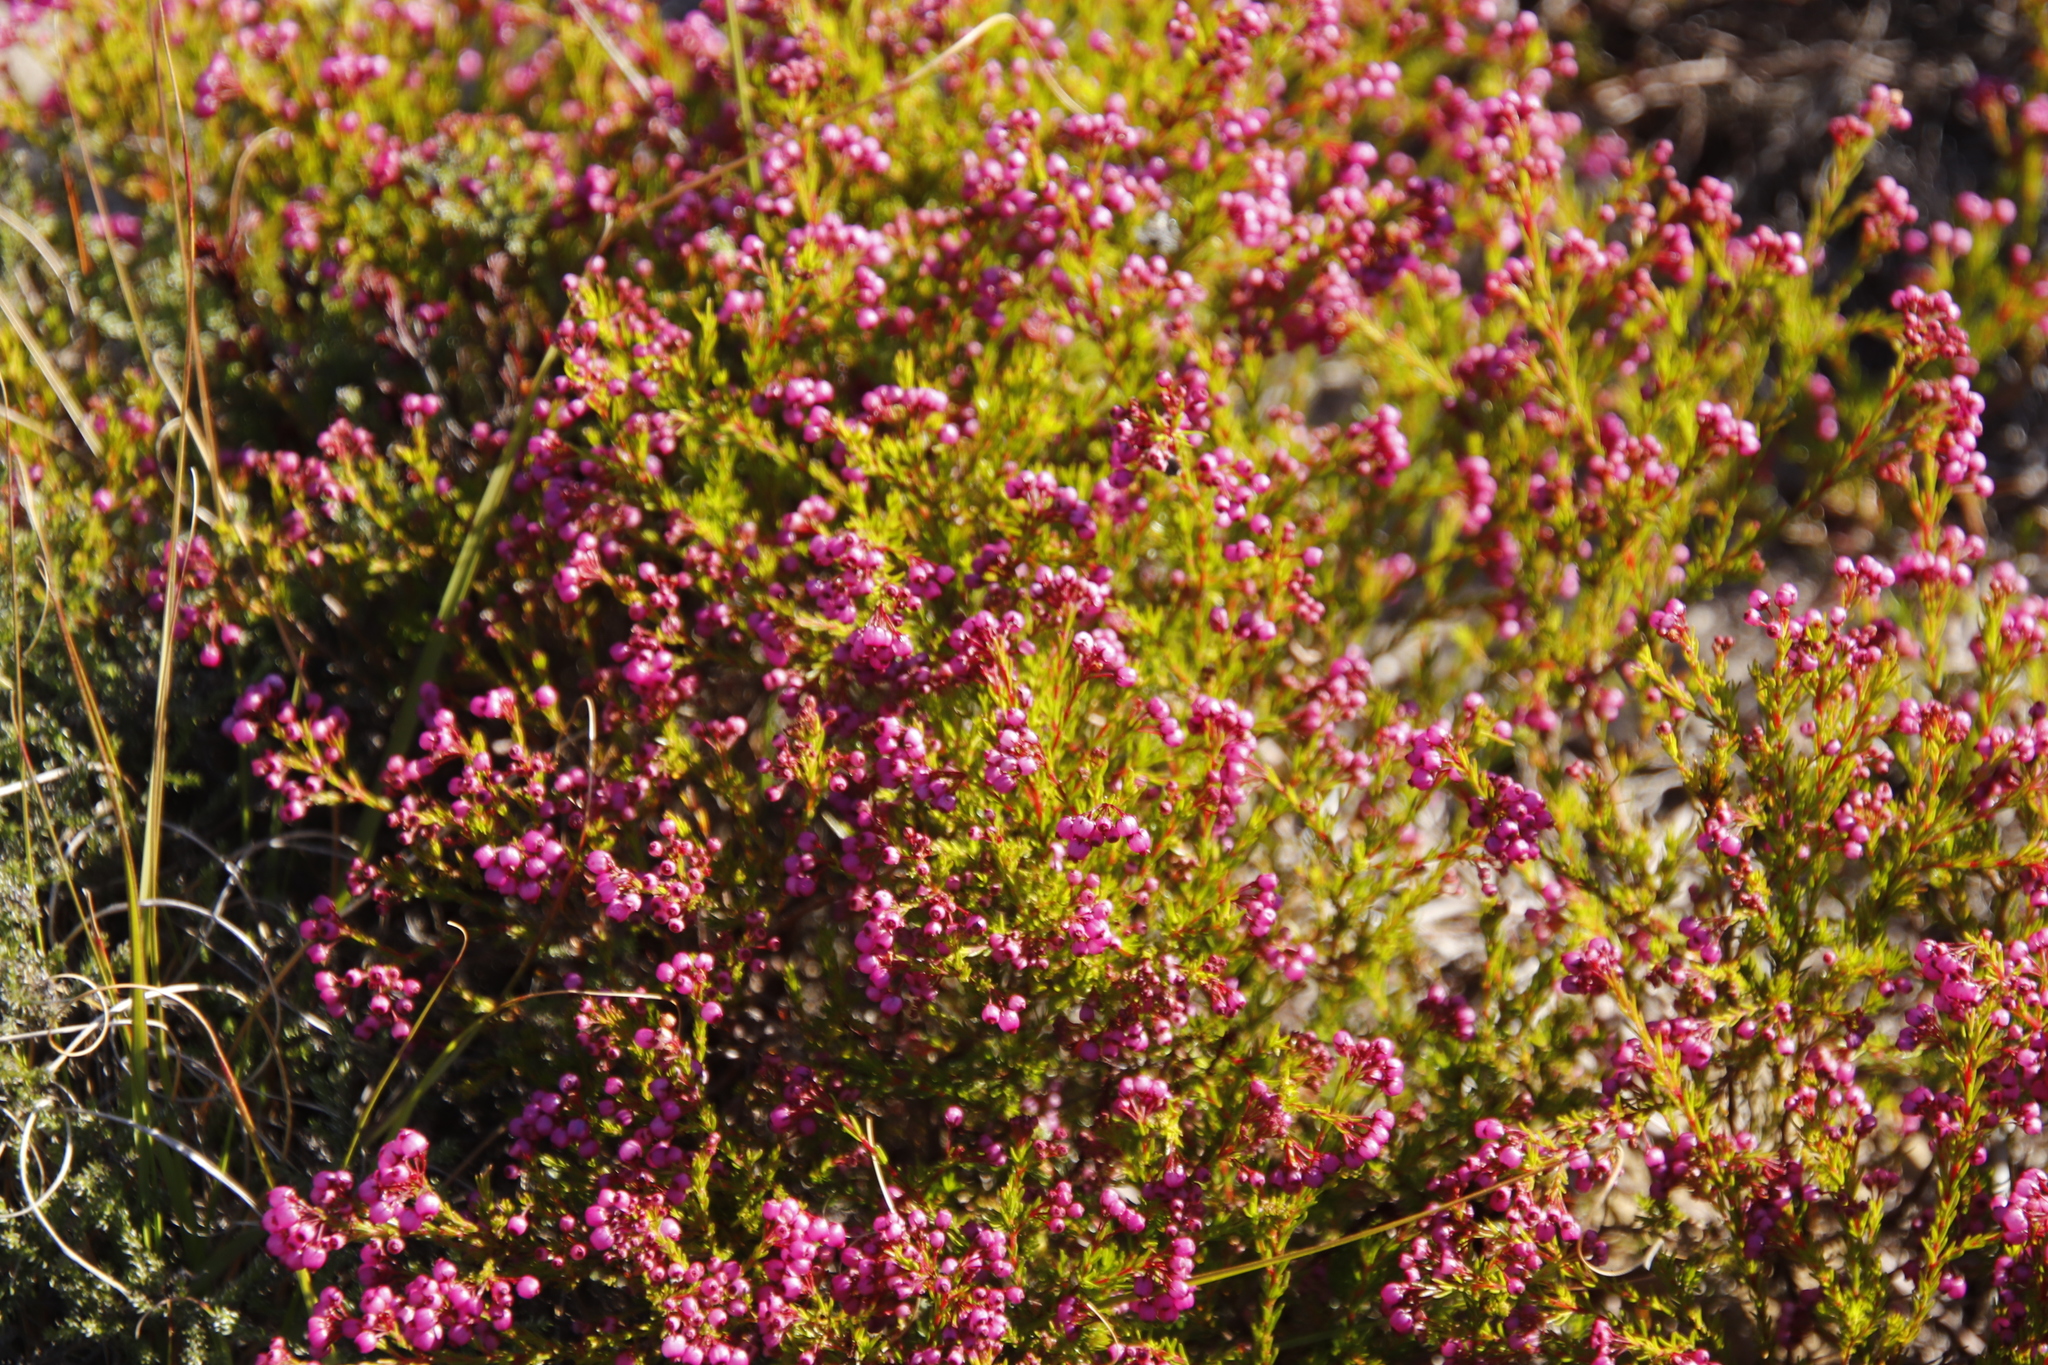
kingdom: Plantae
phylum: Tracheophyta
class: Magnoliopsida
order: Ericales
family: Ericaceae
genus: Erica
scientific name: Erica multumbellifera
